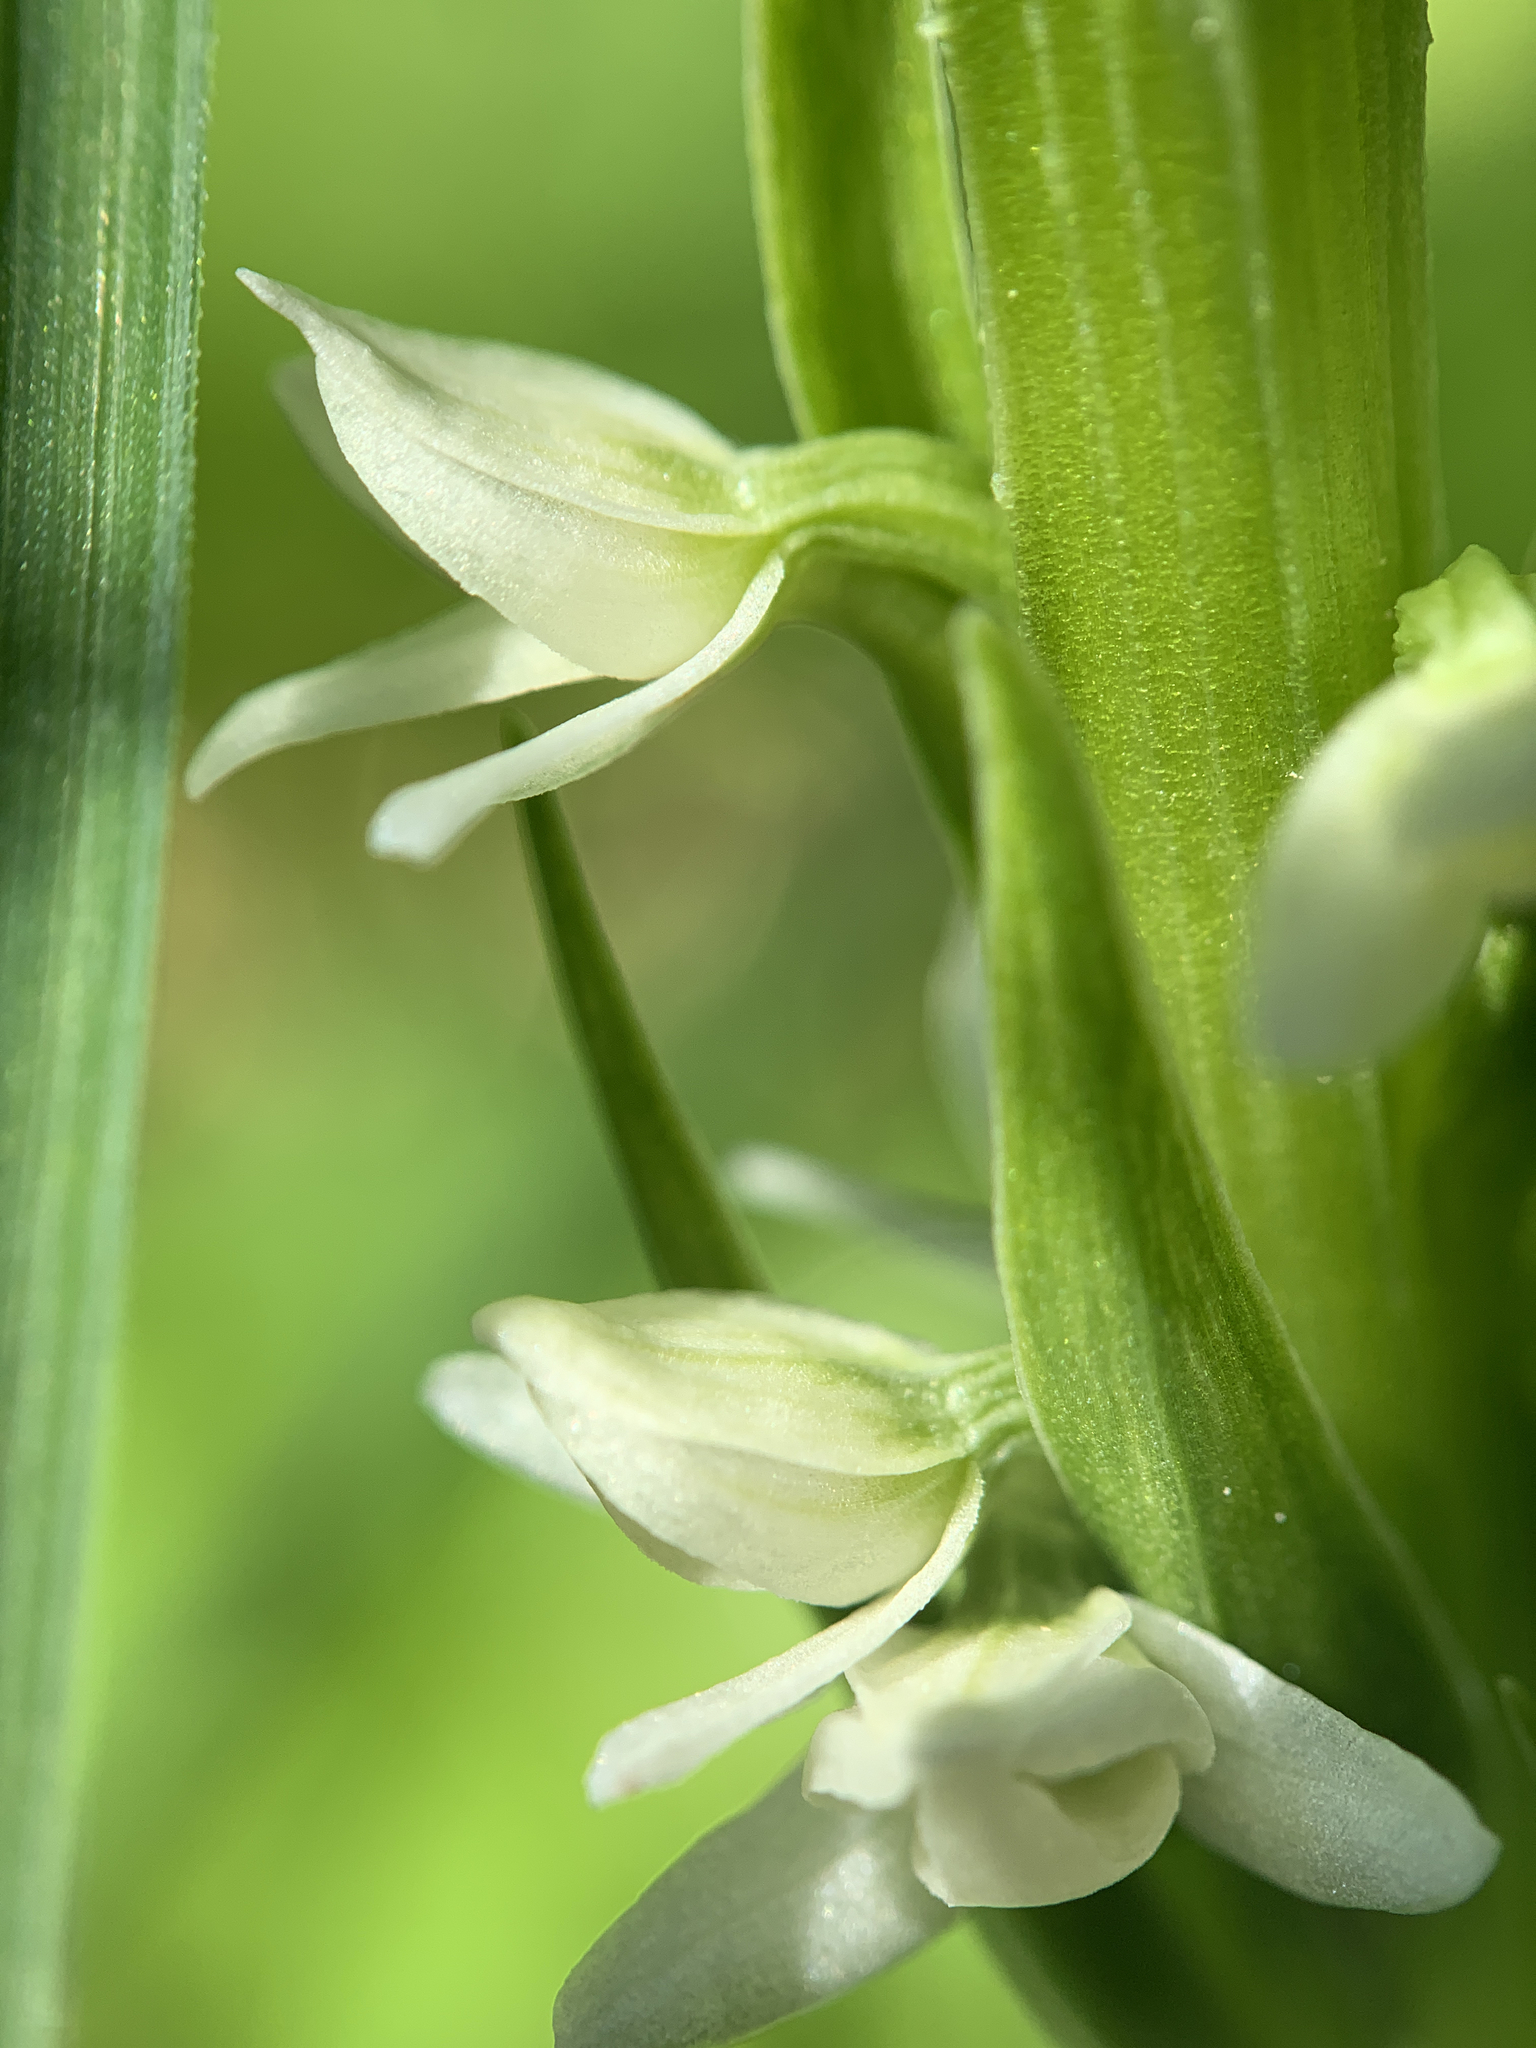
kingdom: Plantae
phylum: Tracheophyta
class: Liliopsida
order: Asparagales
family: Orchidaceae
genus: Platanthera
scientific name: Platanthera dilatata
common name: Bog candles
